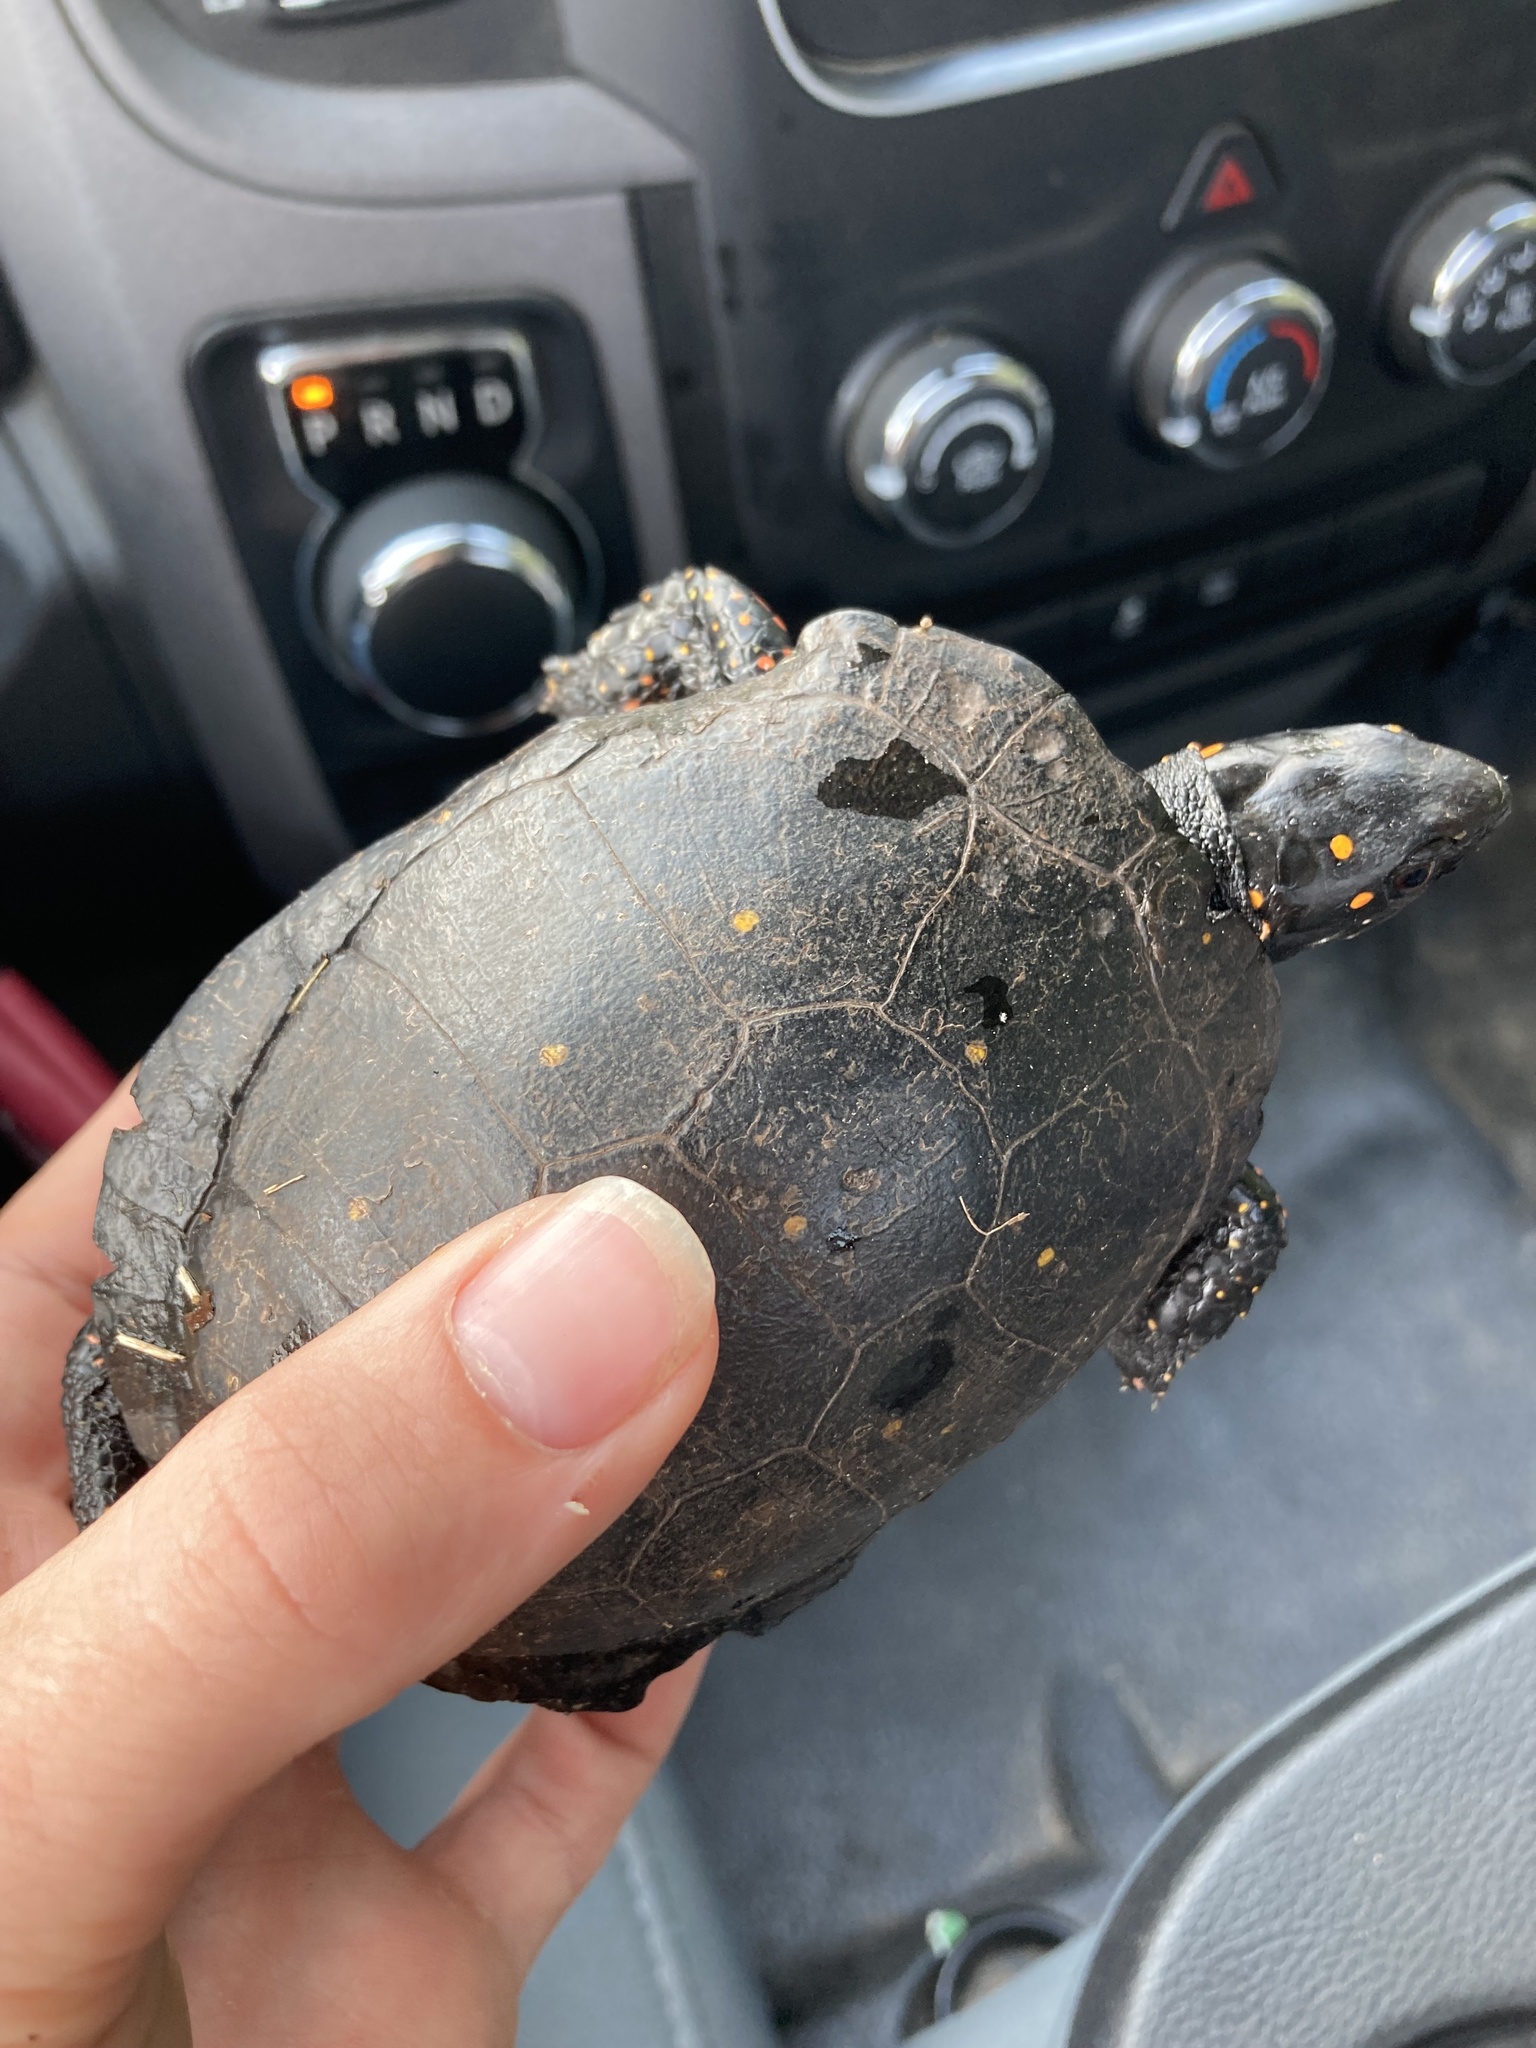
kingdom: Animalia
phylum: Chordata
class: Testudines
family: Emydidae
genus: Clemmys
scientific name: Clemmys guttata
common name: Spotted turtle
